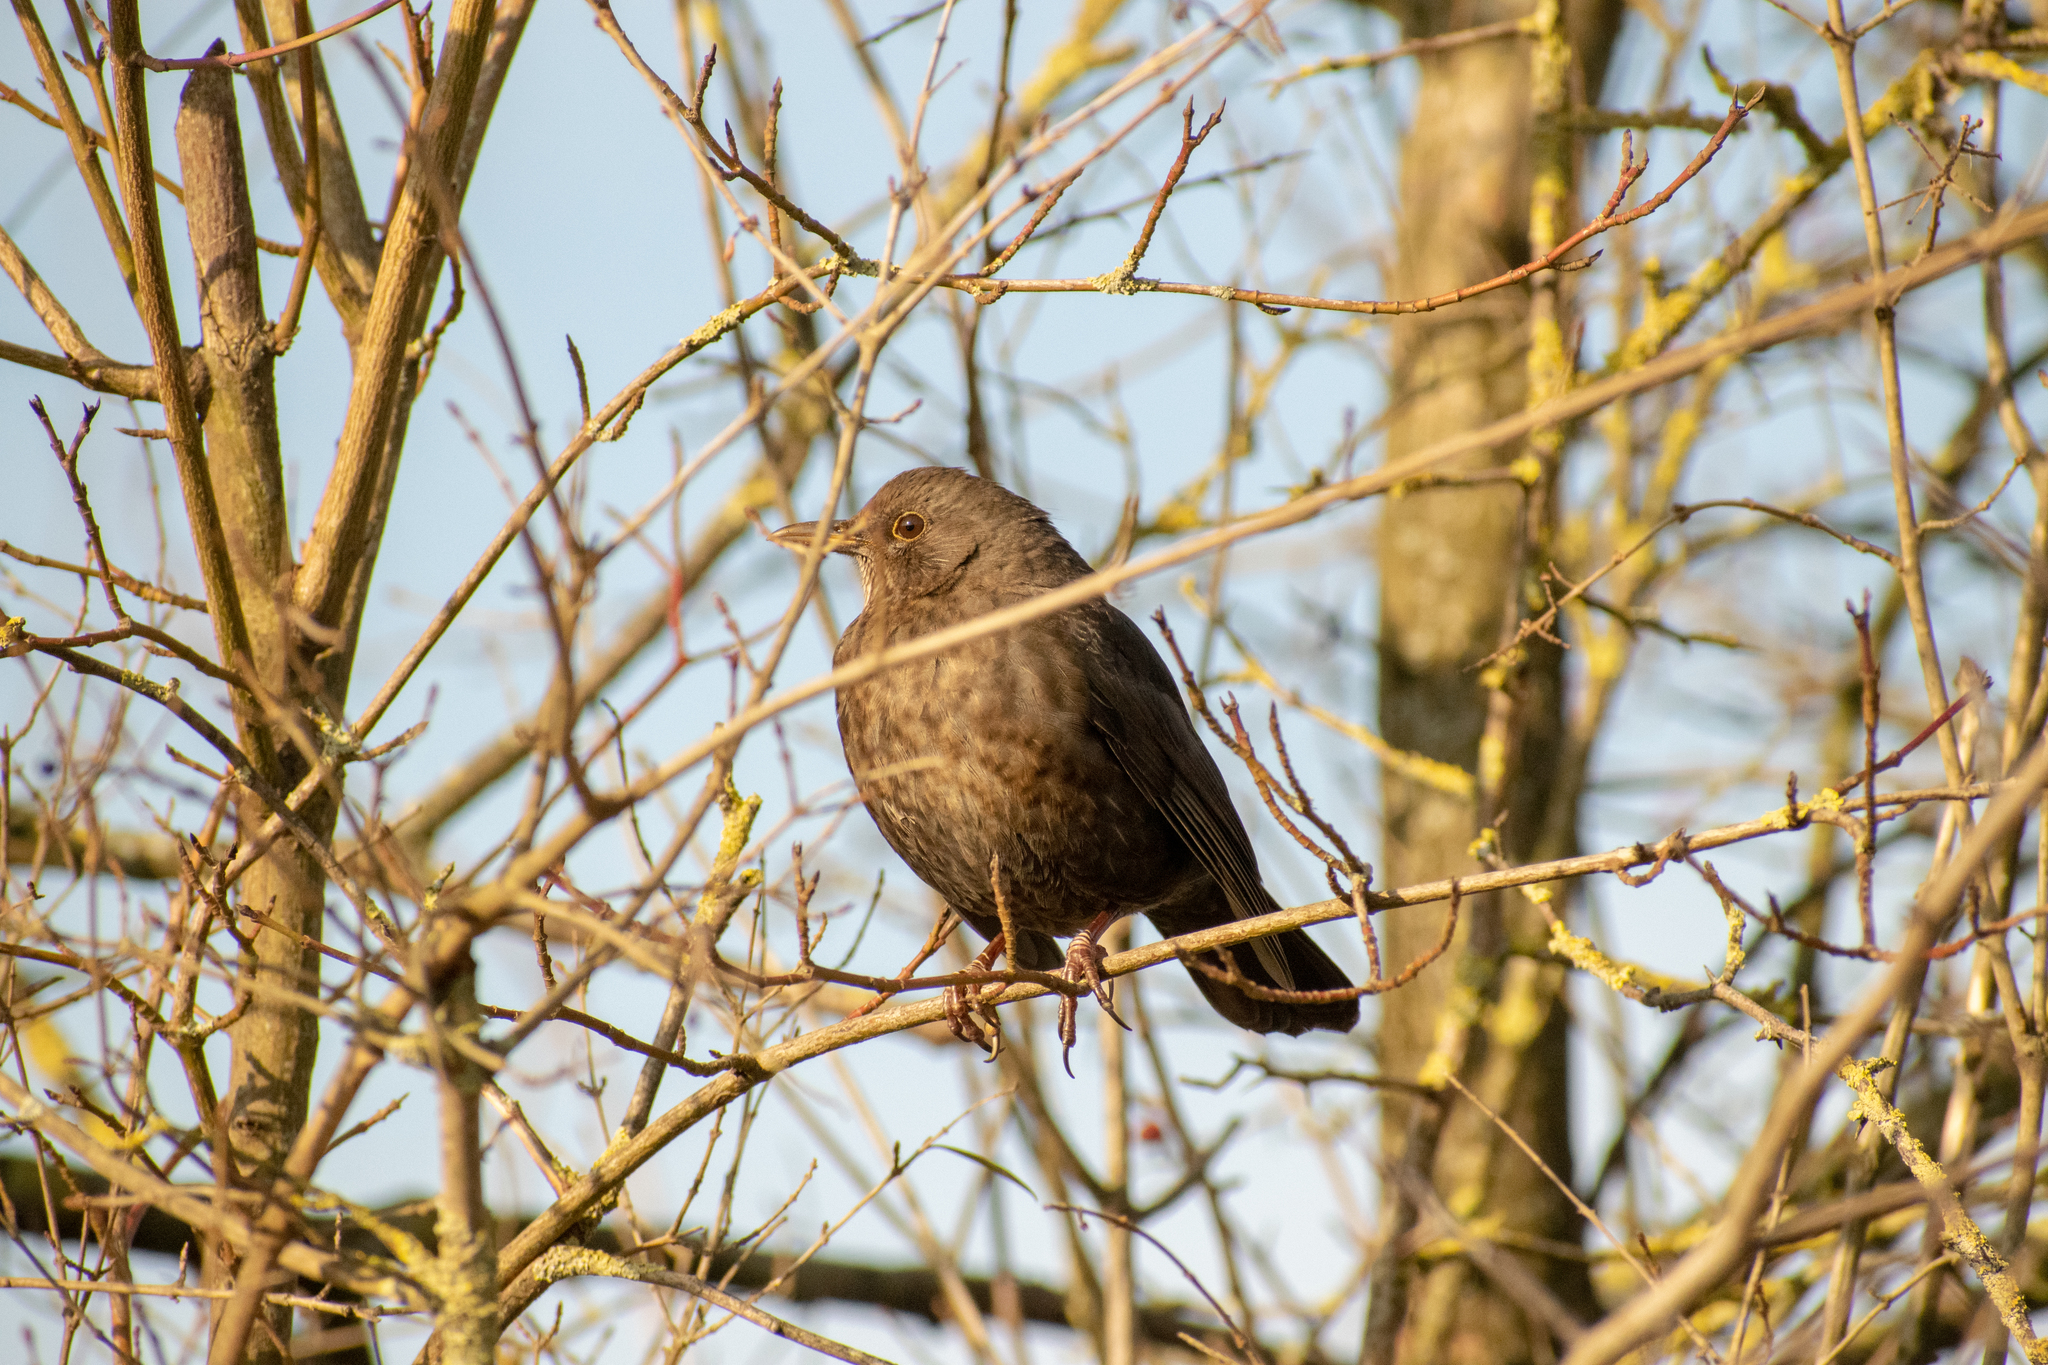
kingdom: Animalia
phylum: Chordata
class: Aves
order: Passeriformes
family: Turdidae
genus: Turdus
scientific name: Turdus merula
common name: Common blackbird
